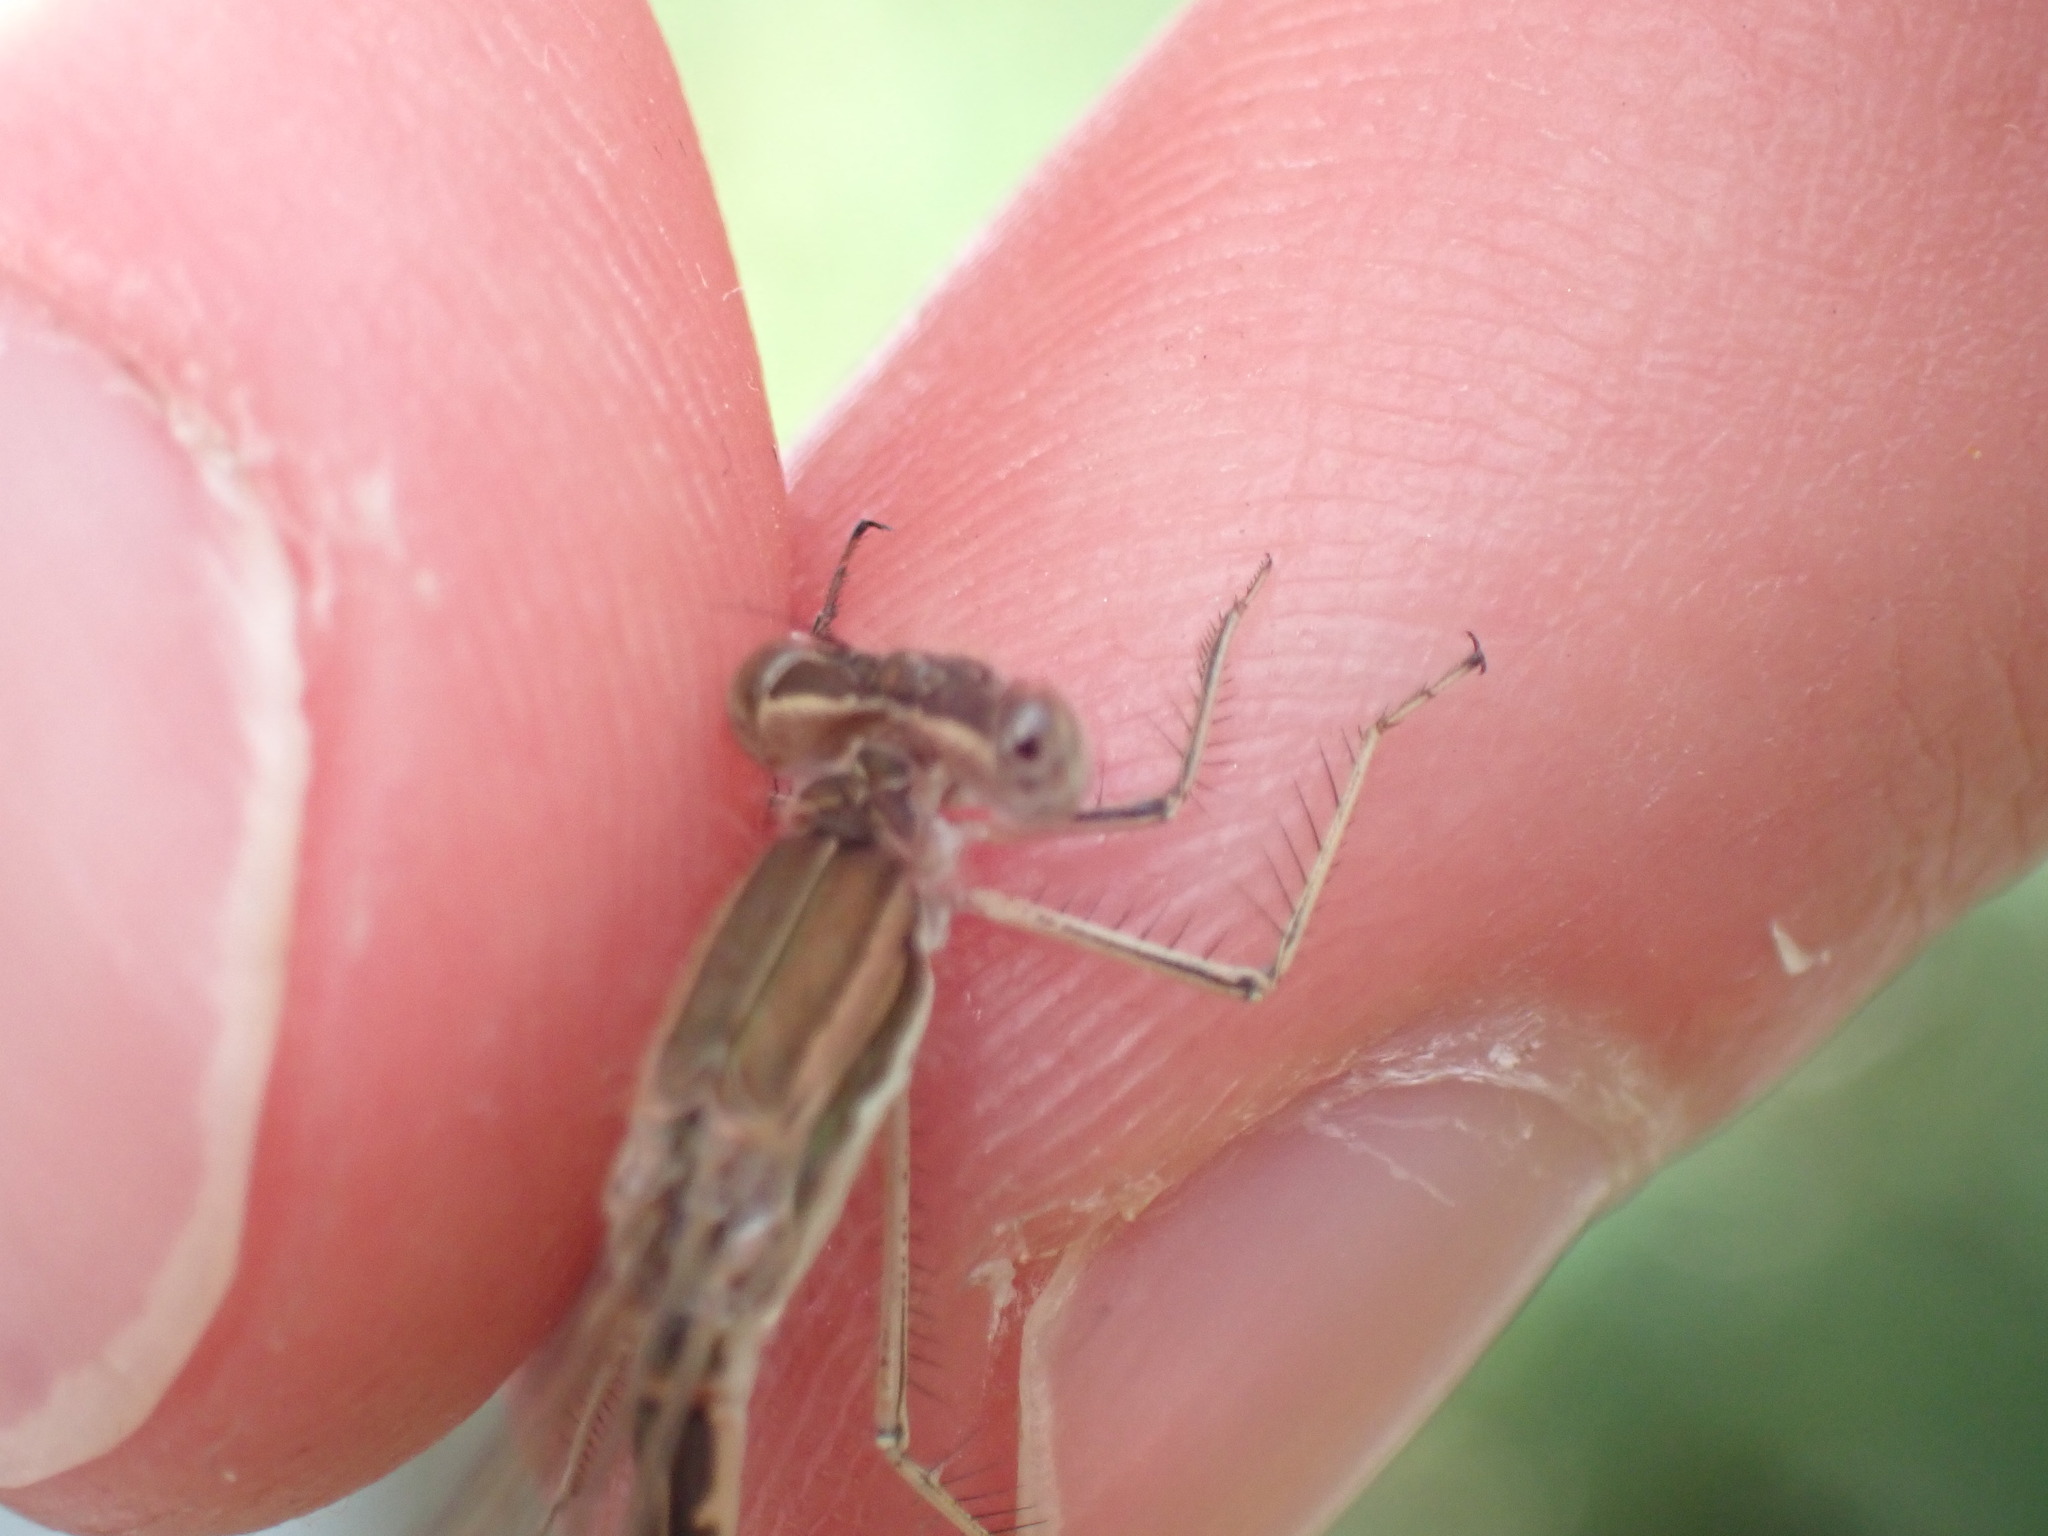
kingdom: Animalia
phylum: Arthropoda
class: Insecta
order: Odonata
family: Lestidae
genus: Sympecma
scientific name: Sympecma fusca
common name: Common winter damsel
